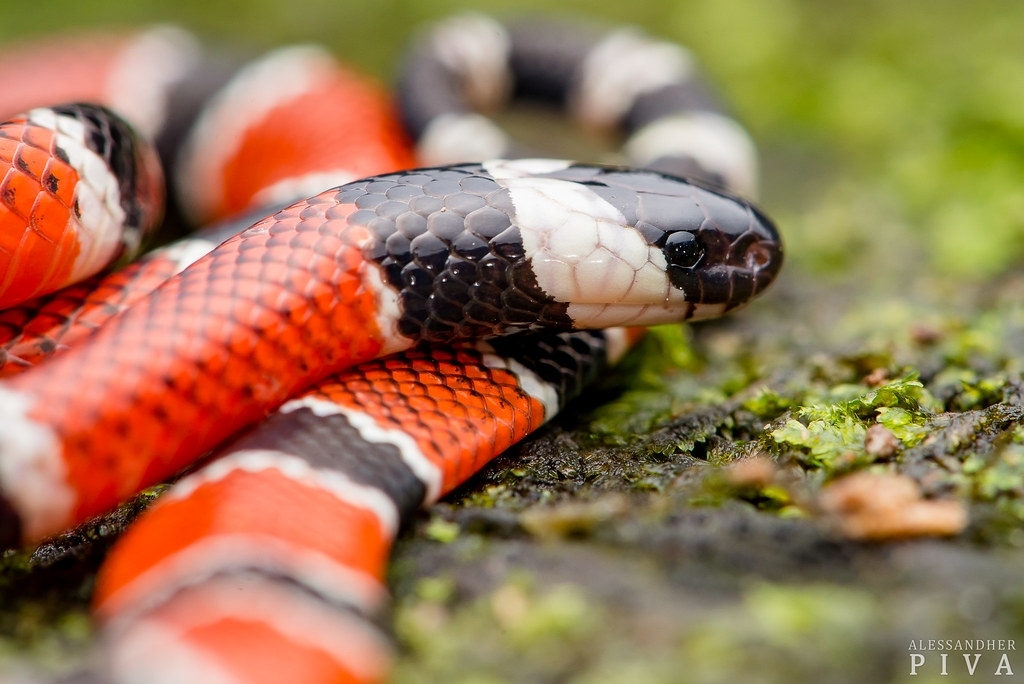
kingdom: Animalia
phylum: Chordata
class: Squamata
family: Elapidae
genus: Micrurus
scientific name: Micrurus corallinus
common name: Painted coral snake
